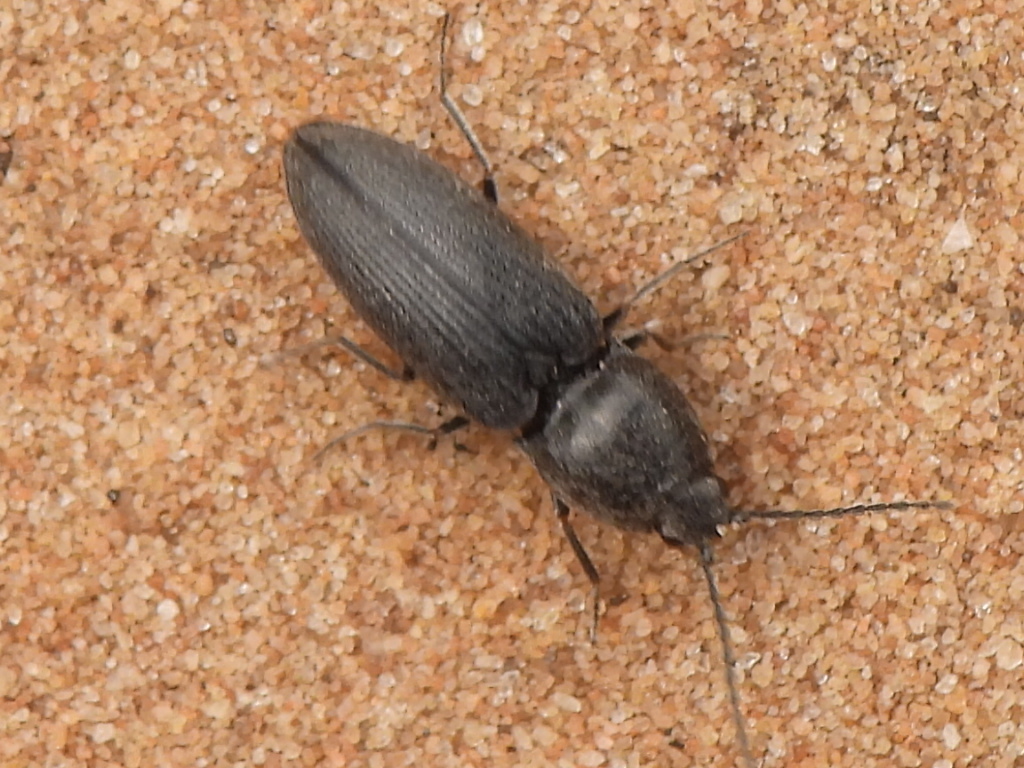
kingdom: Animalia
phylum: Arthropoda
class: Insecta
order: Coleoptera
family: Elateridae
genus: Cardiophorus
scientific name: Cardiophorus
